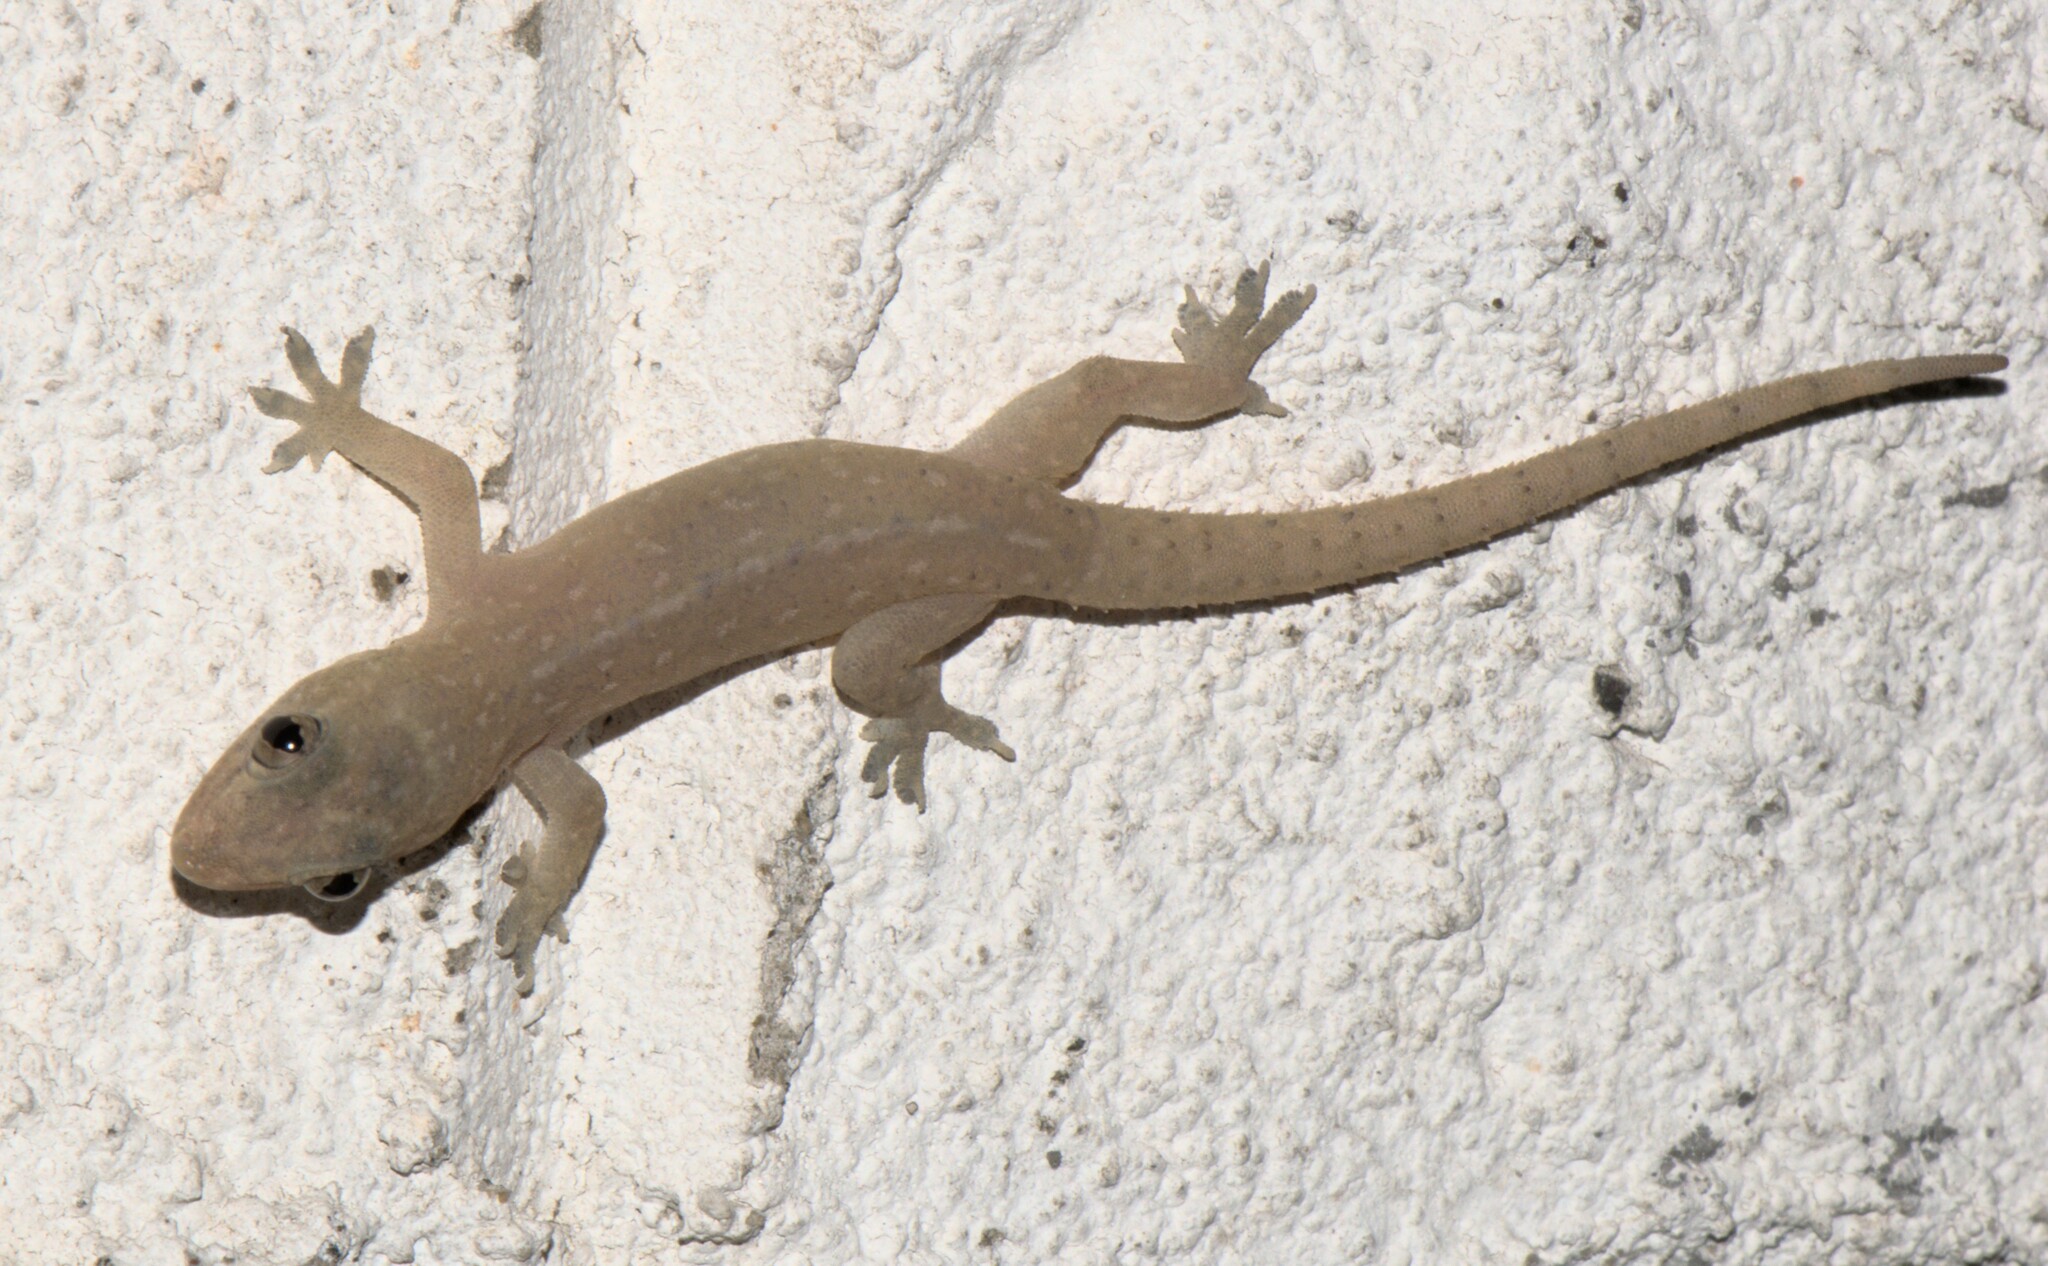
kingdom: Animalia
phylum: Chordata
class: Squamata
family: Gekkonidae
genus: Hemidactylus
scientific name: Hemidactylus flaviviridis
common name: Northern house gecko
